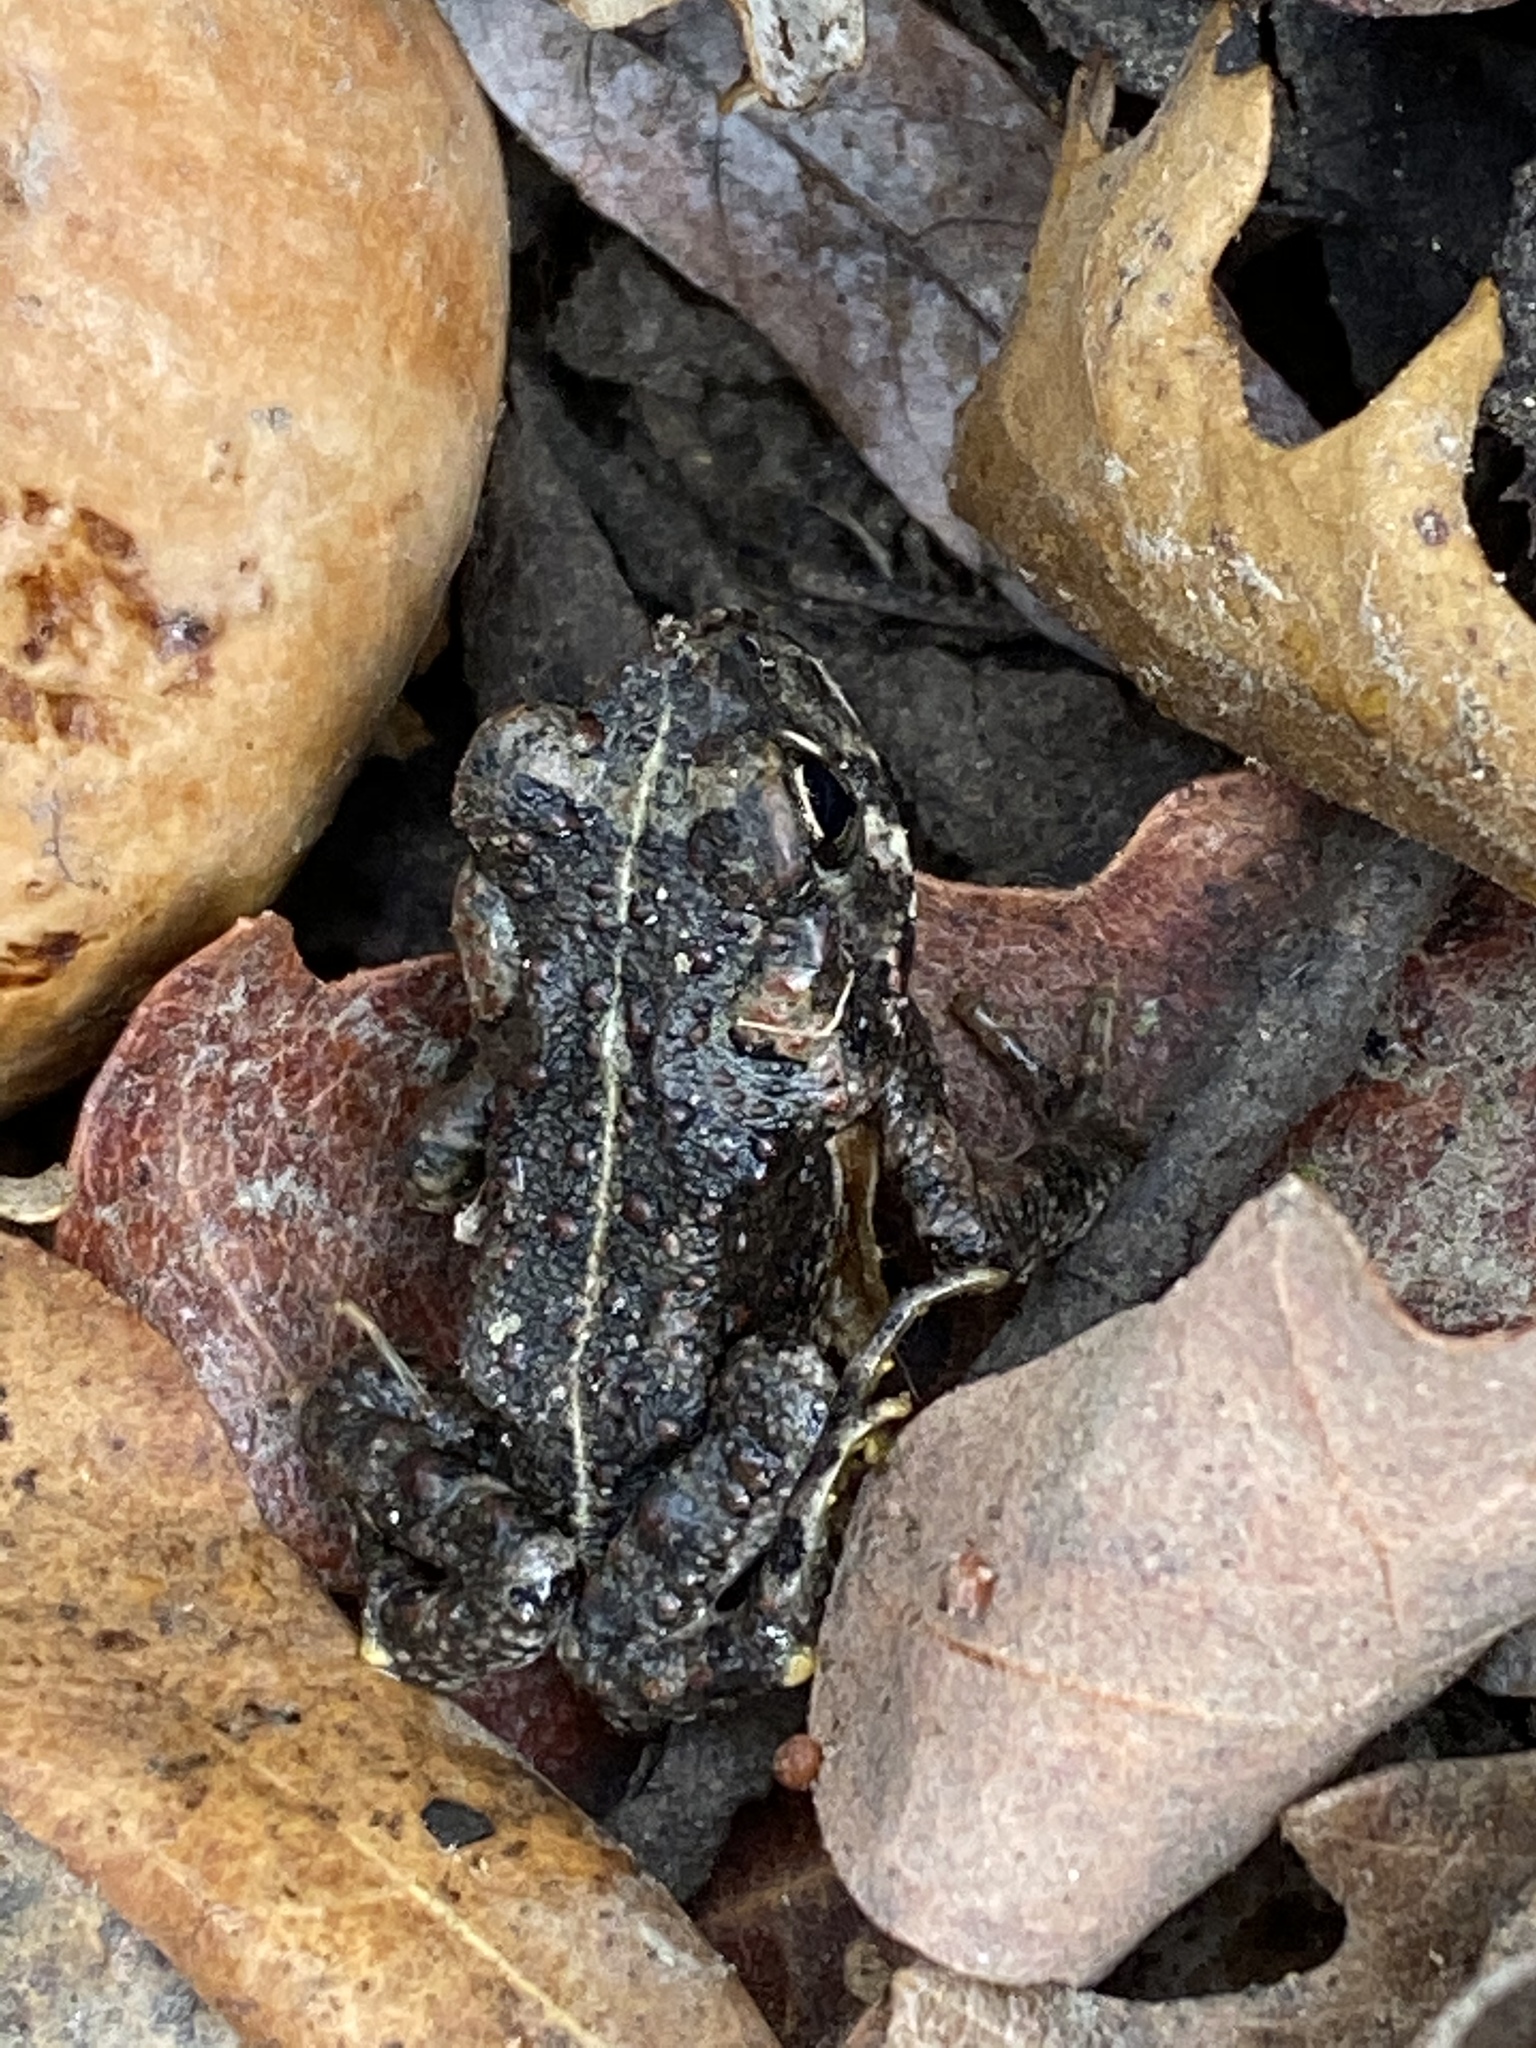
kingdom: Animalia
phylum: Chordata
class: Amphibia
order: Anura
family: Bufonidae
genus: Anaxyrus
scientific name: Anaxyrus boreas
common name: Western toad
